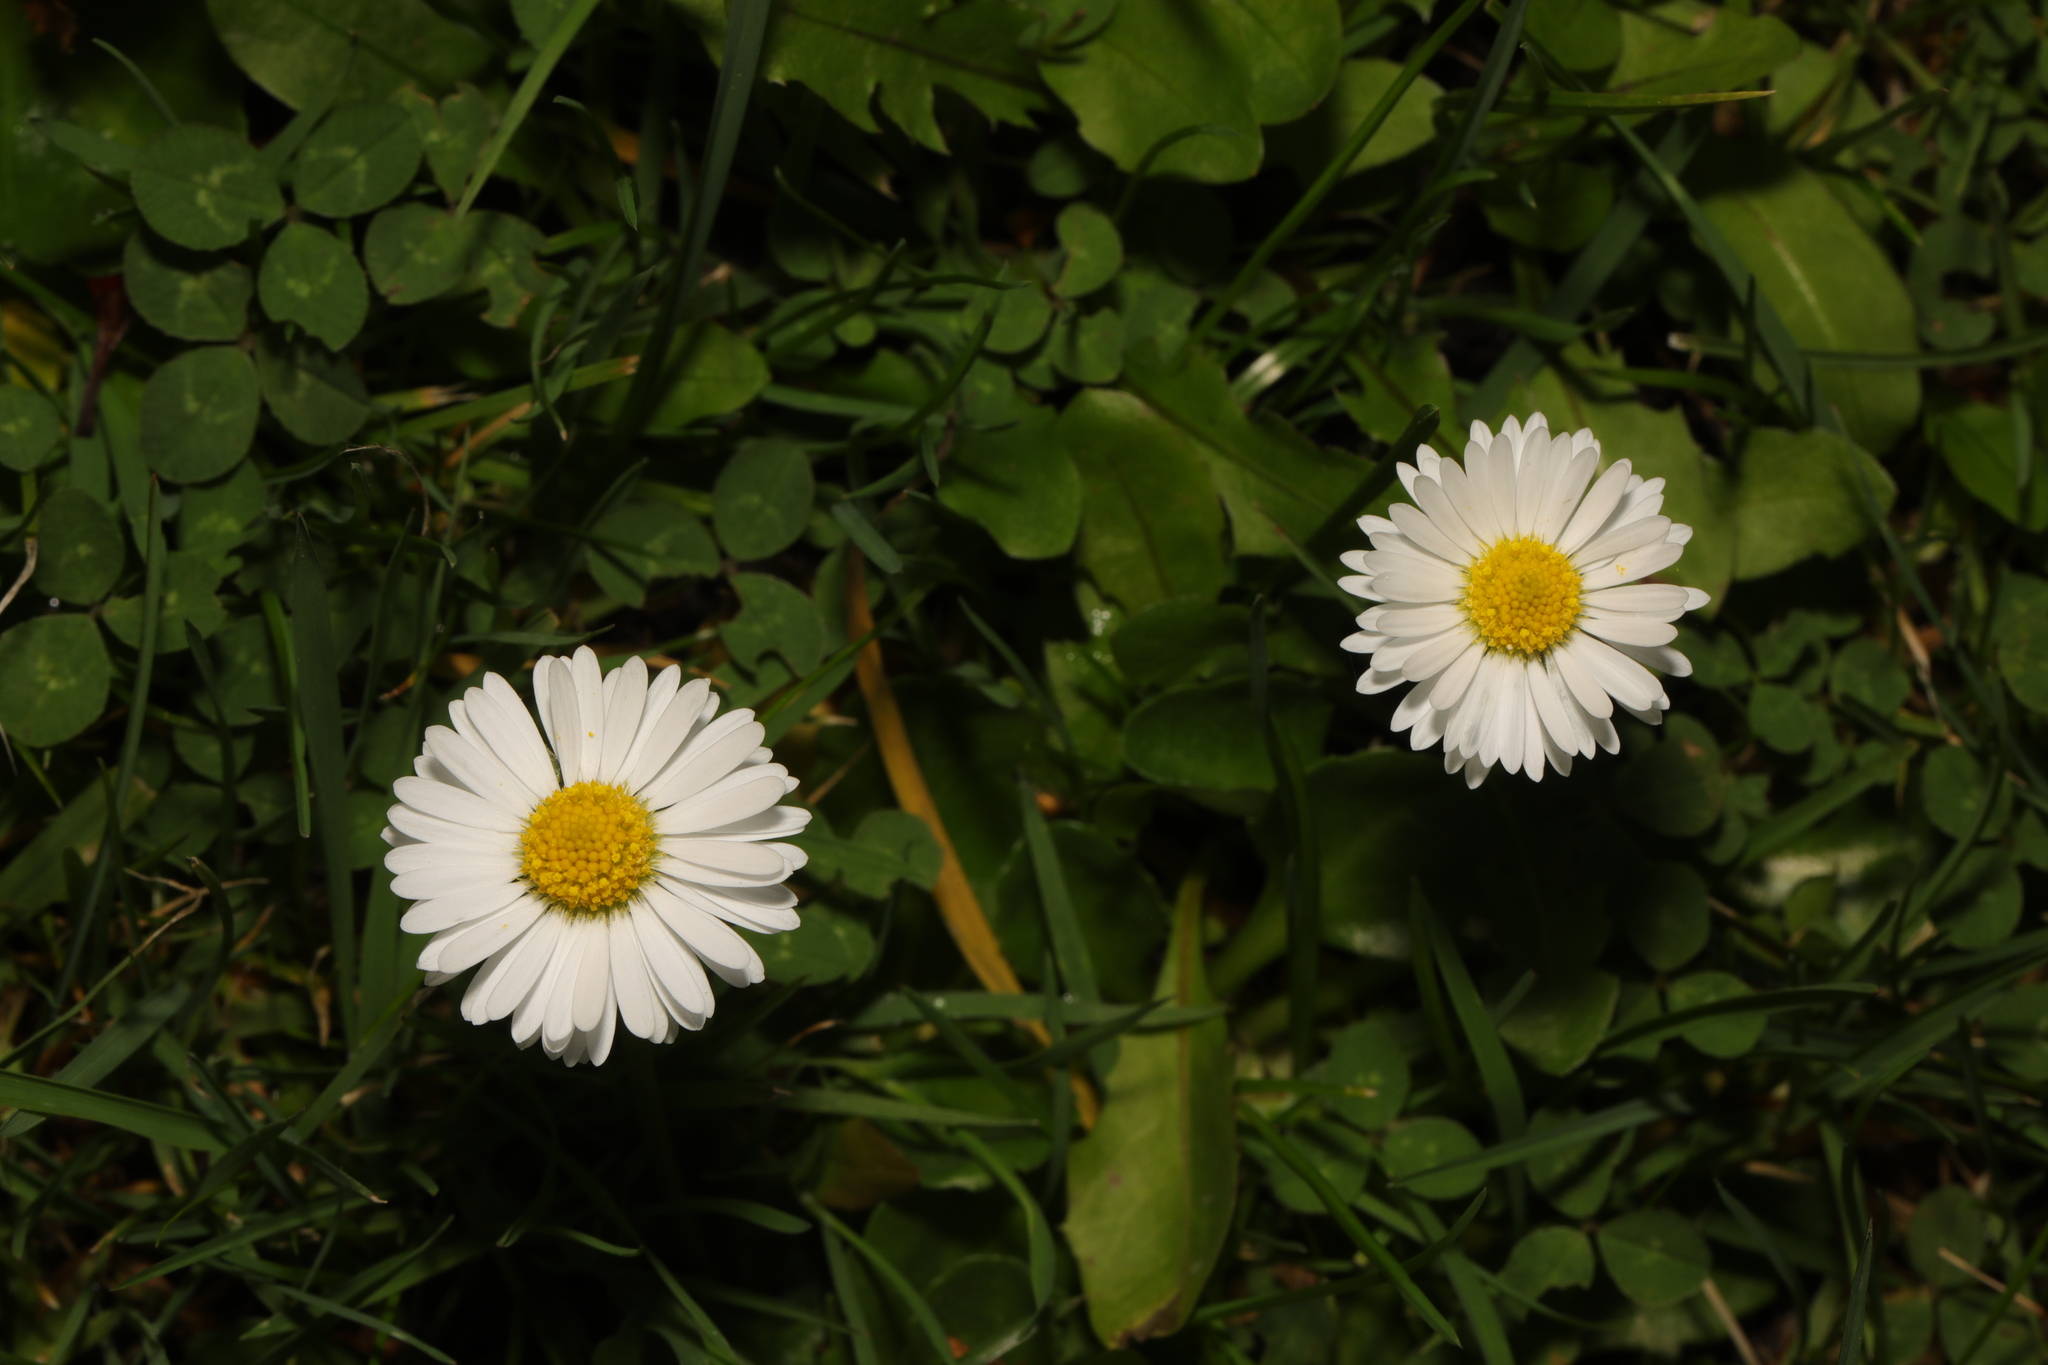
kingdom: Plantae
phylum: Tracheophyta
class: Magnoliopsida
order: Asterales
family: Asteraceae
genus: Bellis
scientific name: Bellis perennis
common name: Lawndaisy
